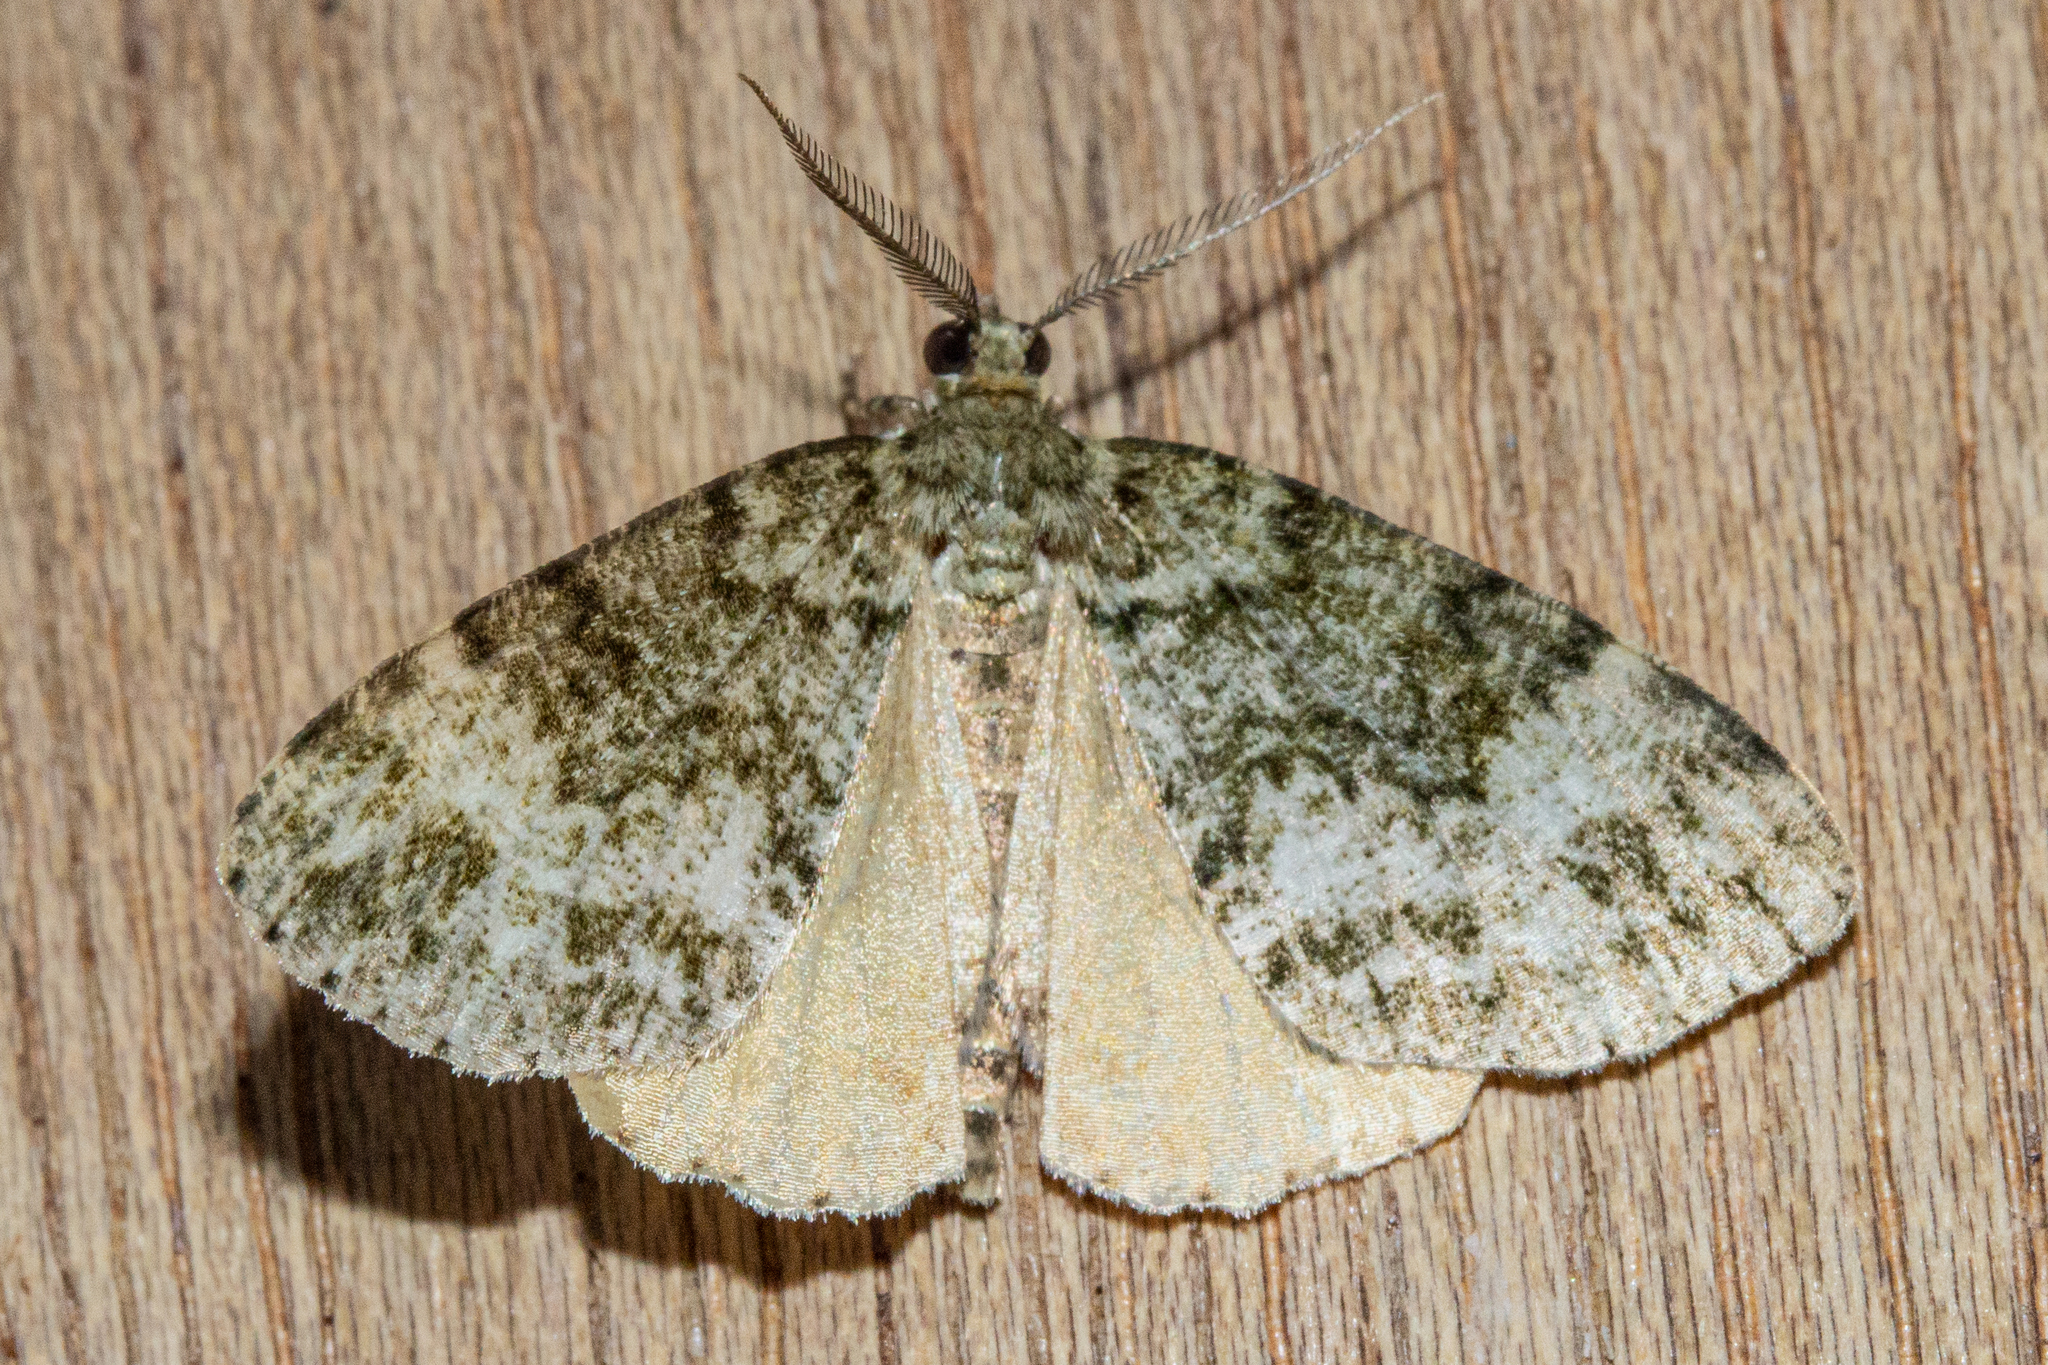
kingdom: Animalia
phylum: Arthropoda
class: Insecta
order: Lepidoptera
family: Geometridae
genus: Pseudocoremia
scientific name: Pseudocoremia indistincta
